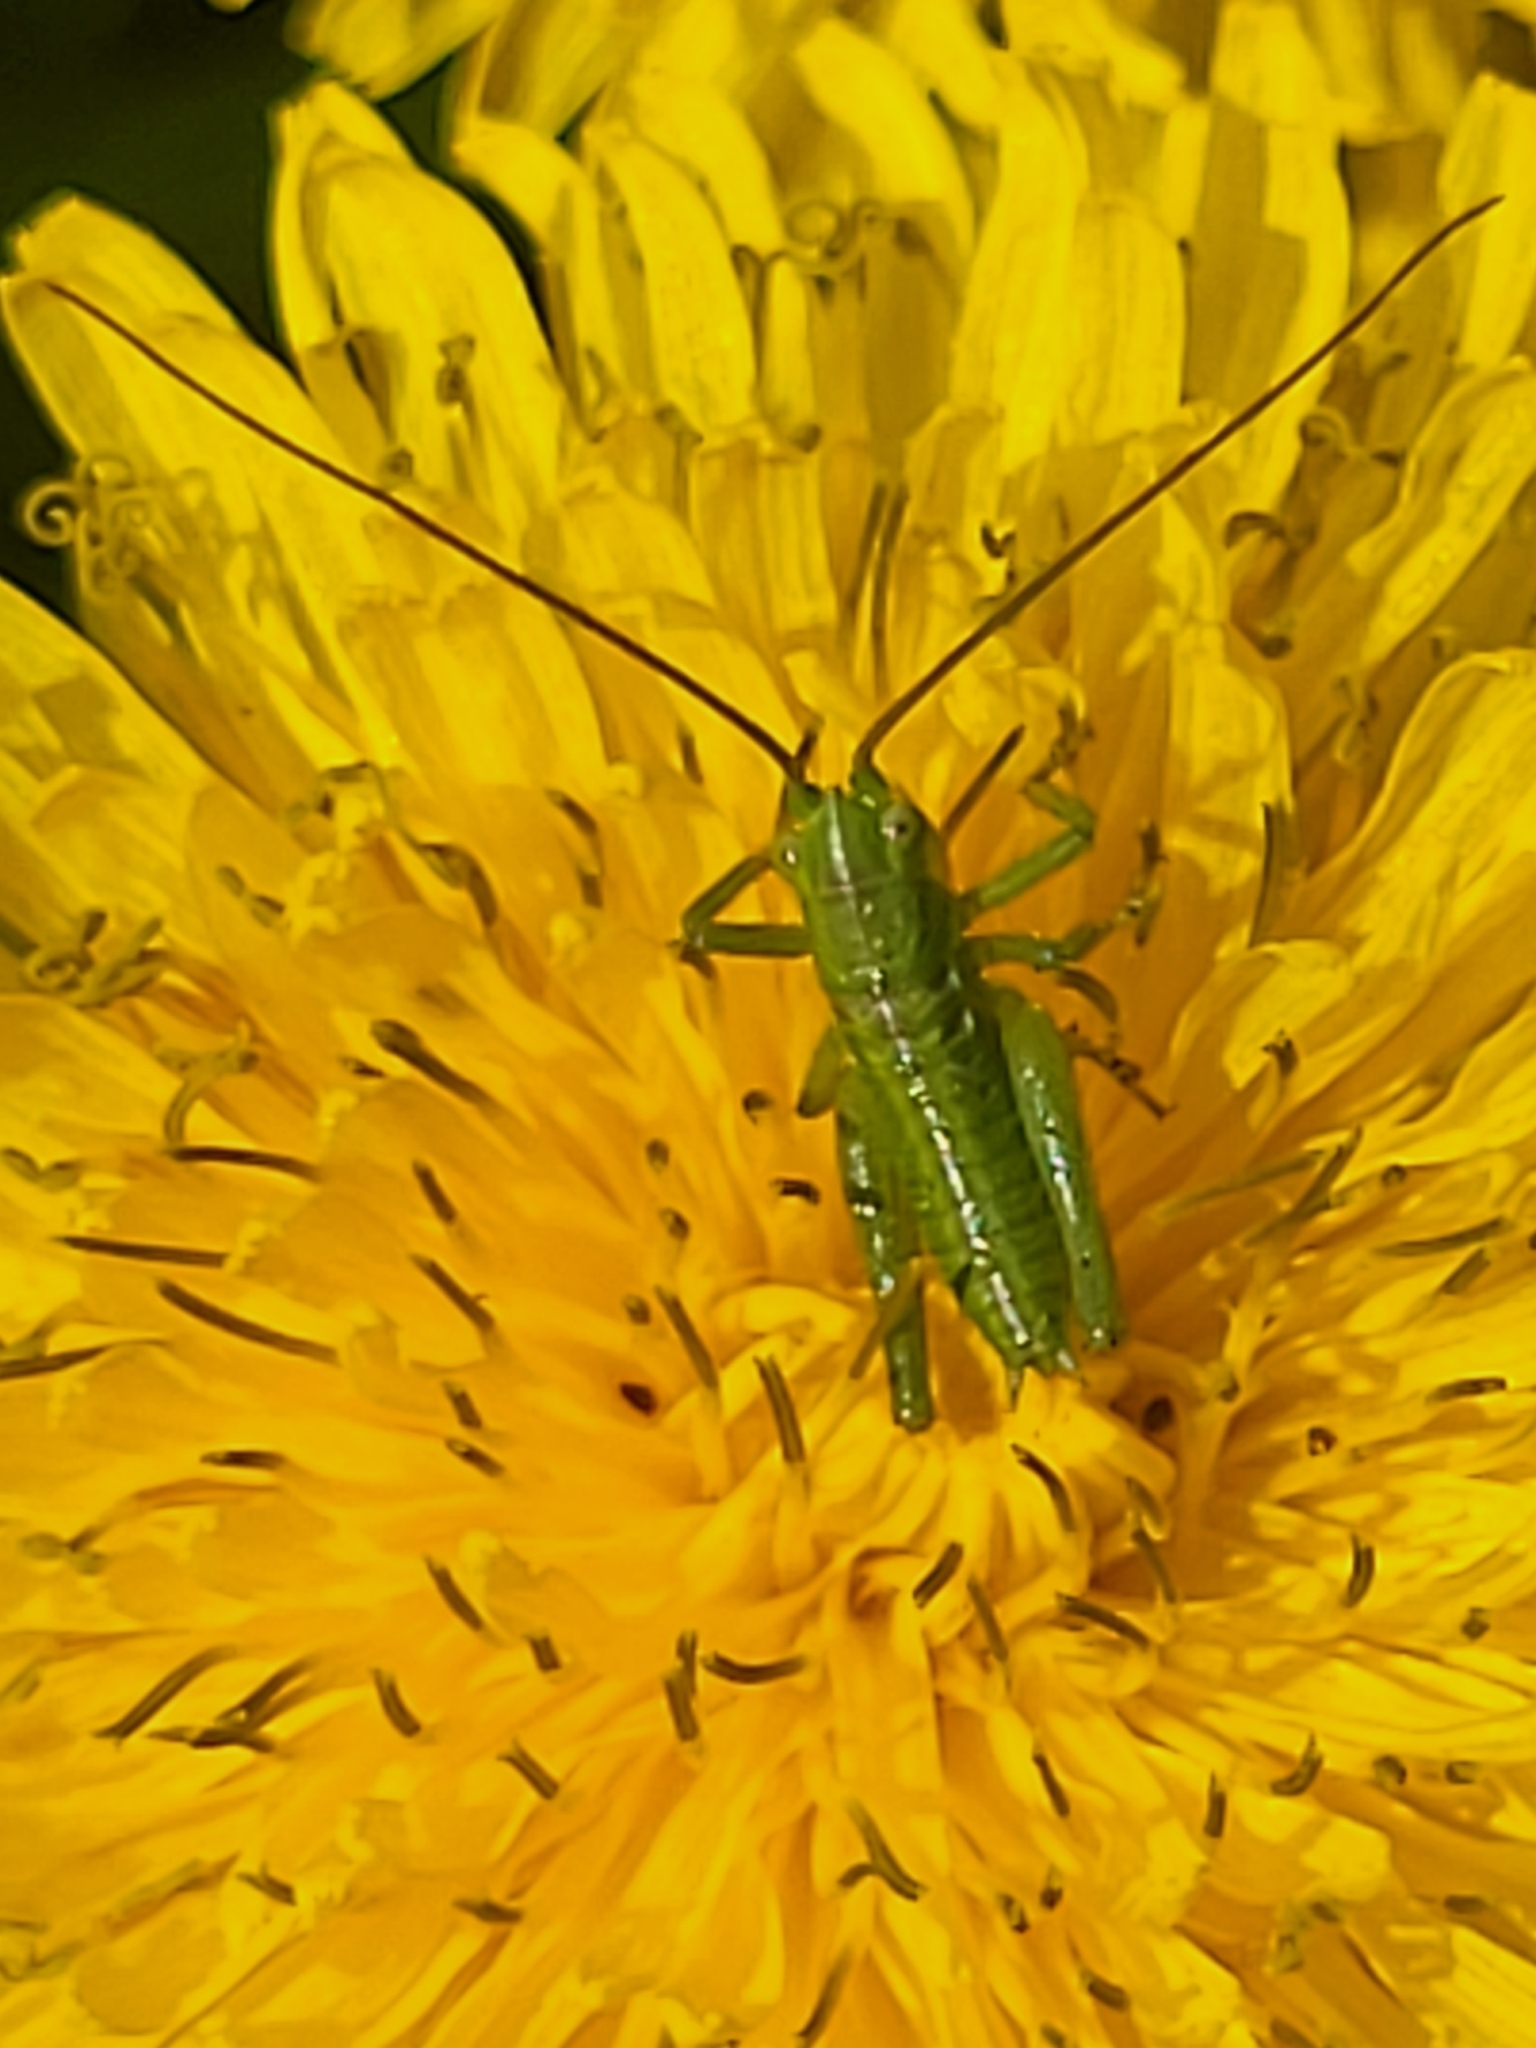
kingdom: Animalia
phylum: Arthropoda
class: Insecta
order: Orthoptera
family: Tettigoniidae
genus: Tettigonia
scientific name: Tettigonia viridissima
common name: Great green bush-cricket
